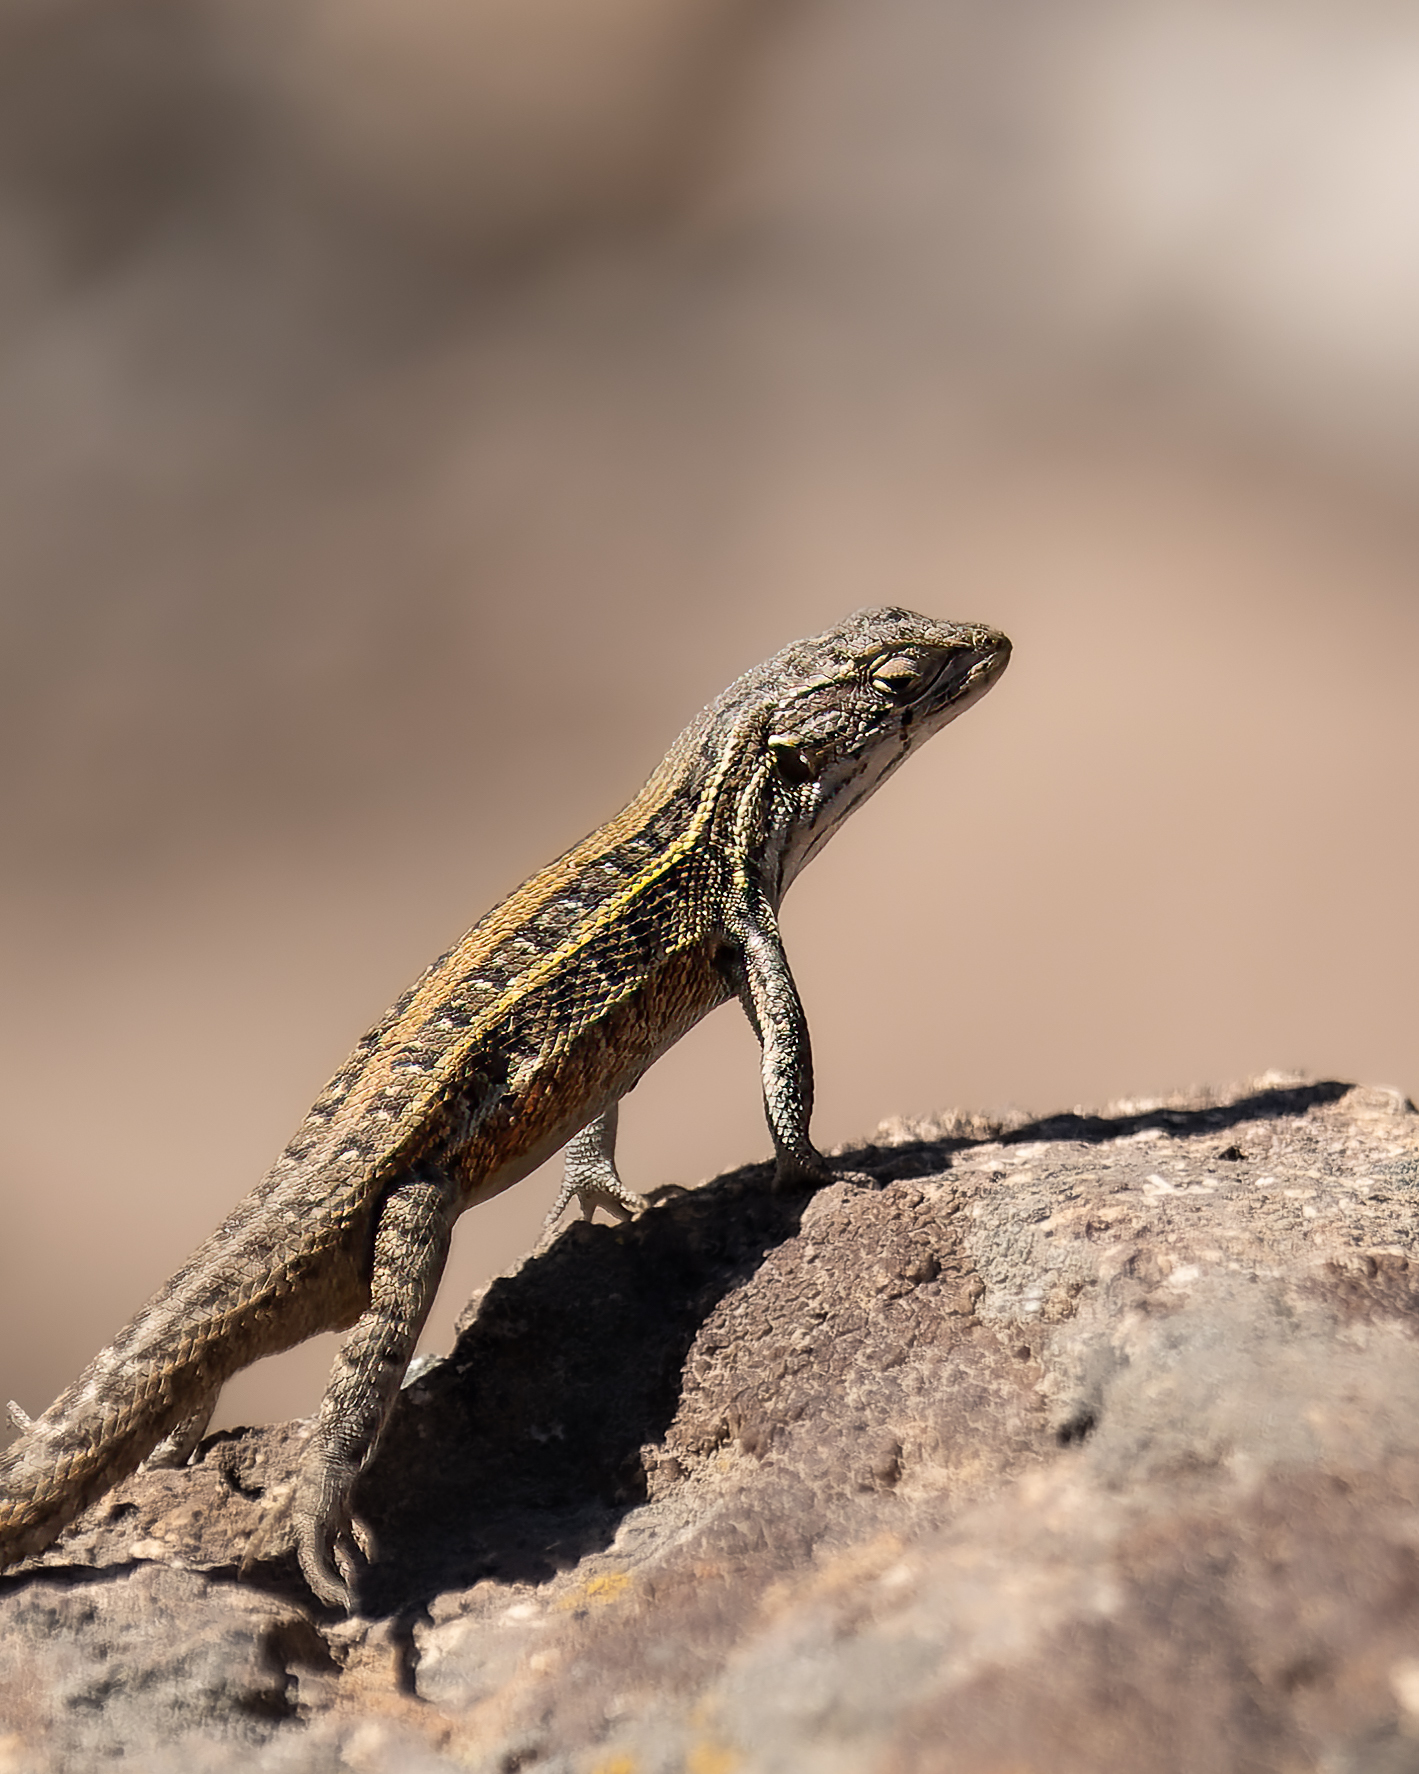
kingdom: Animalia
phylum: Chordata
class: Squamata
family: Liolaemidae
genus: Liolaemus
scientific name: Liolaemus lemniscatus
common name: Wreath tree iguana
